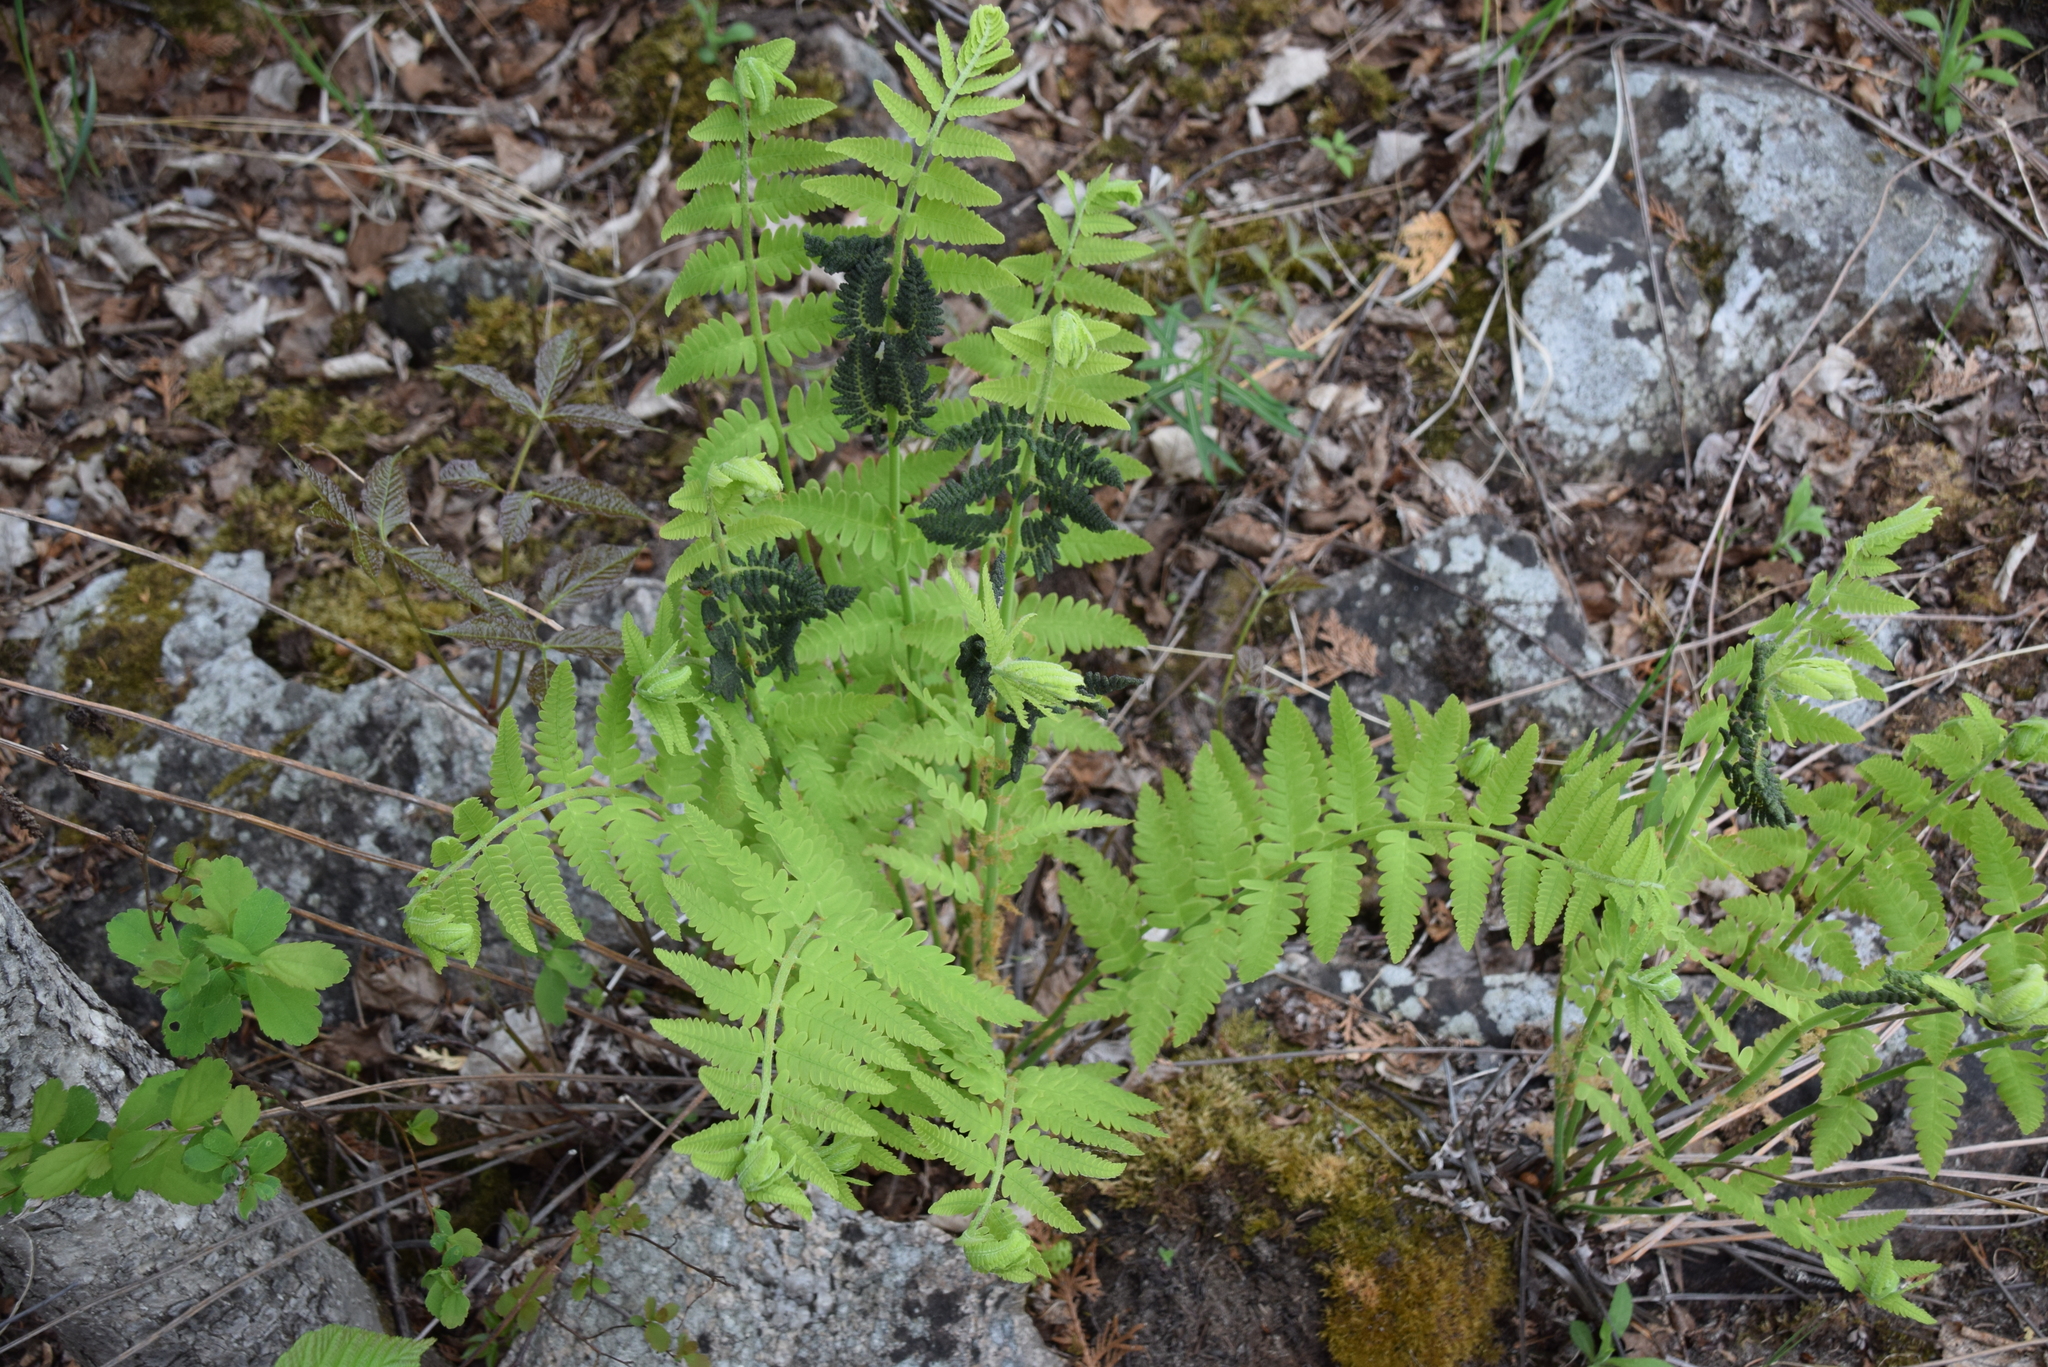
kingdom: Plantae
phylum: Tracheophyta
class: Polypodiopsida
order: Osmundales
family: Osmundaceae
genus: Claytosmunda
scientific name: Claytosmunda claytoniana
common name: Clayton's fern
